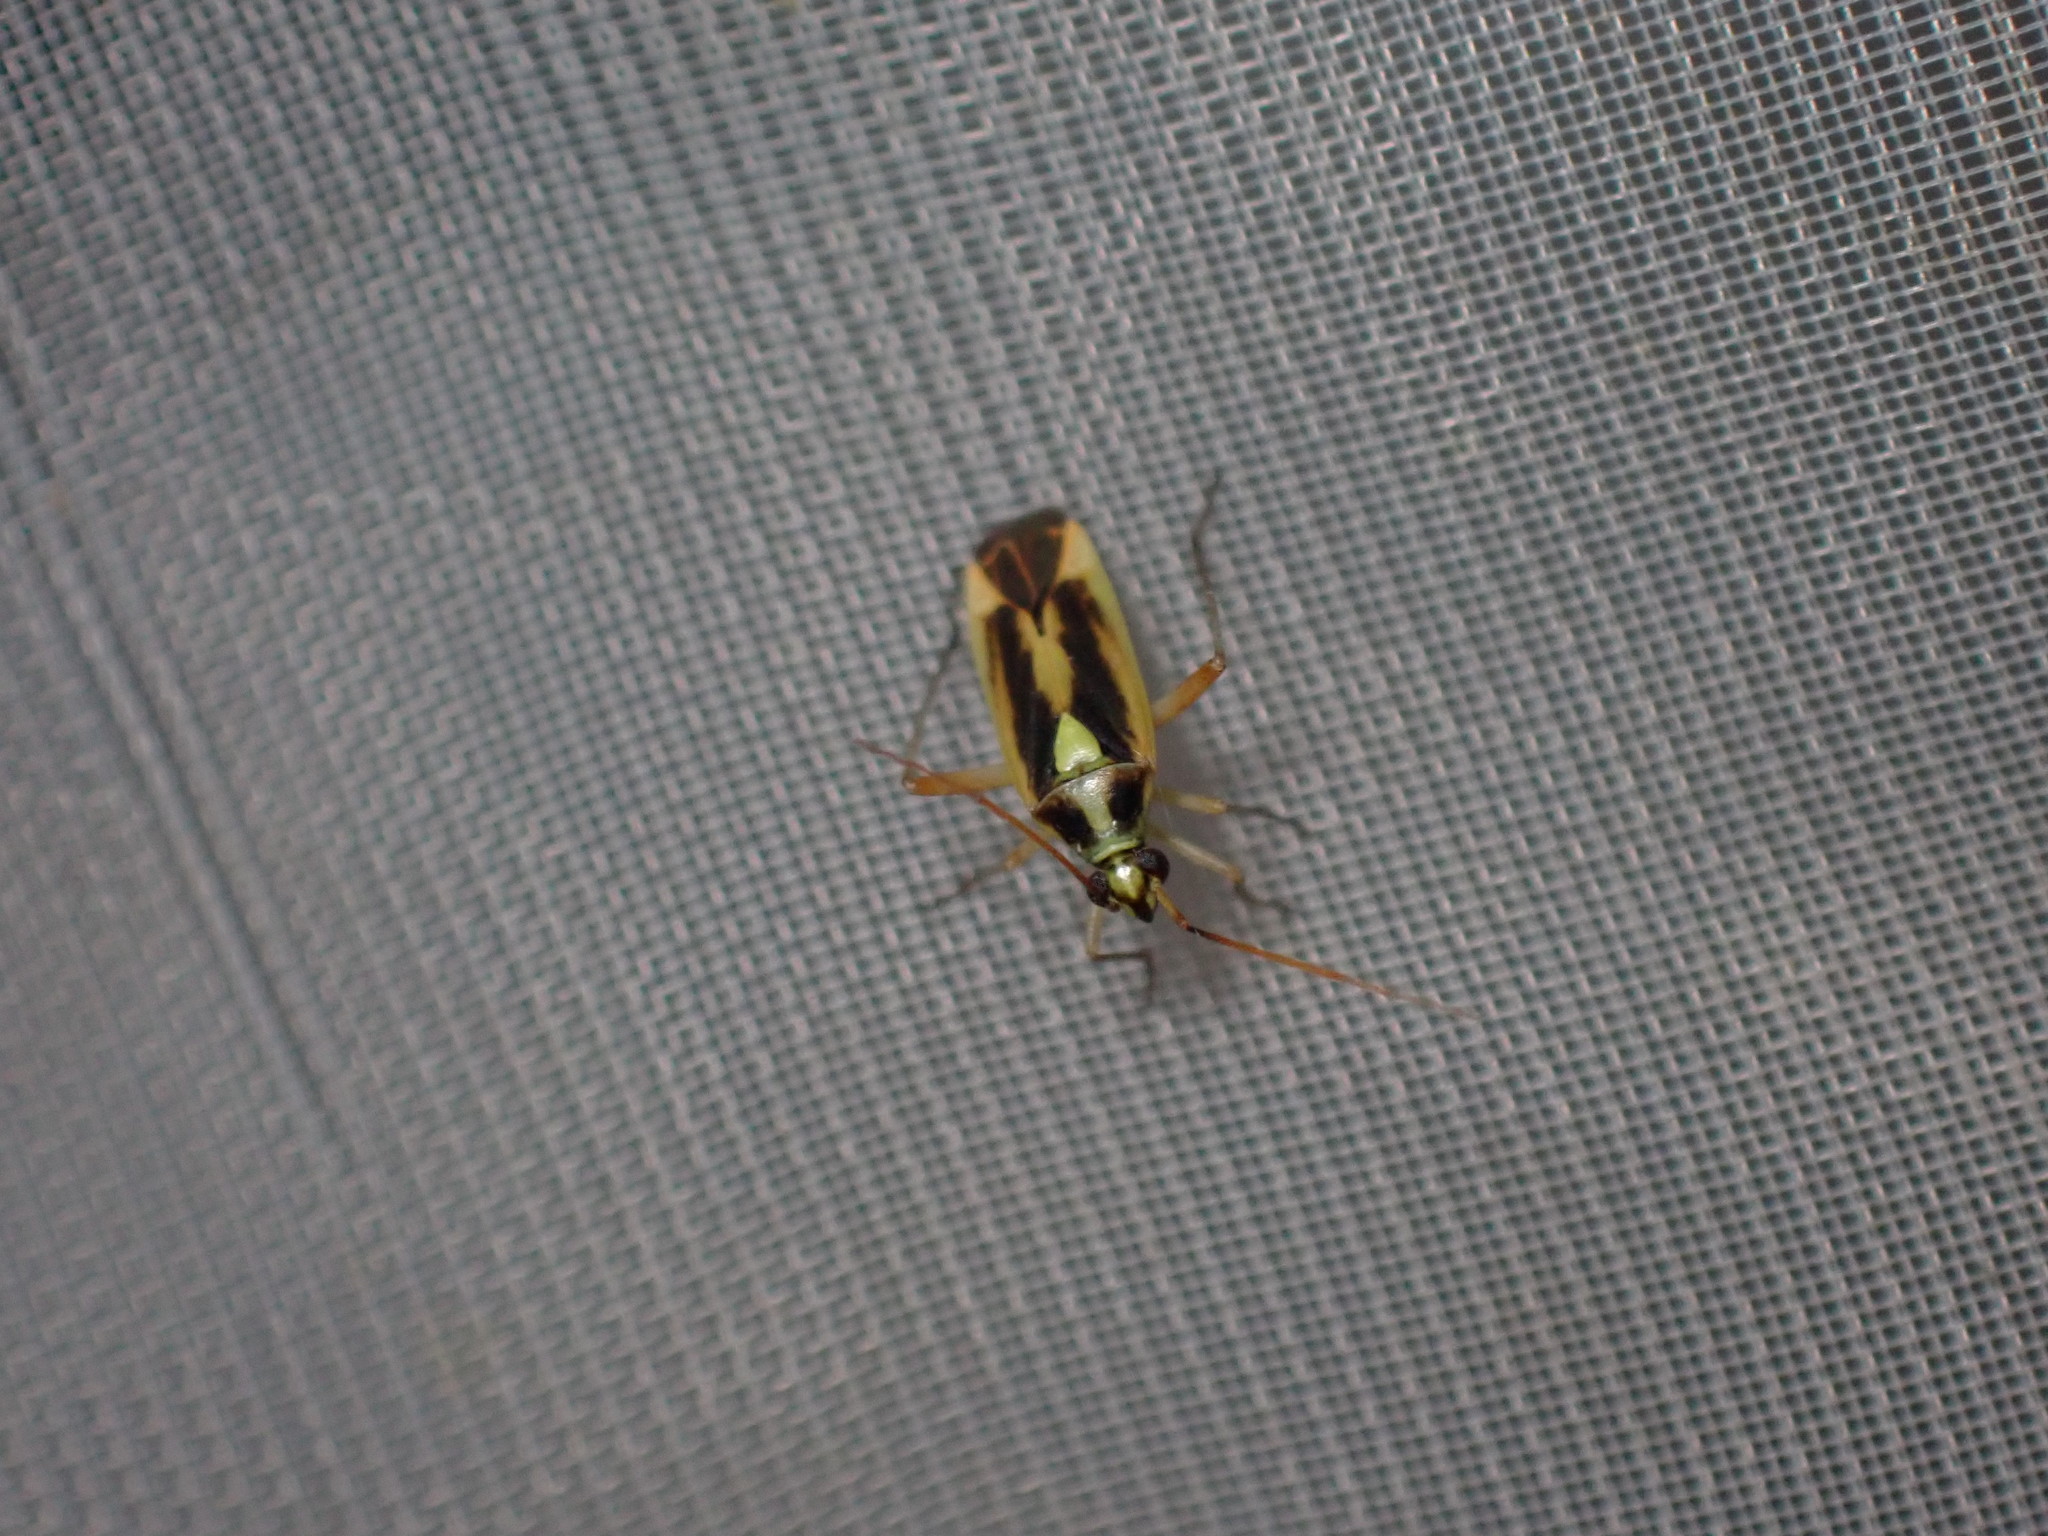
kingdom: Animalia
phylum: Arthropoda
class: Insecta
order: Hemiptera
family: Miridae
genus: Stenotus
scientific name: Stenotus binotatus
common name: Plant bug
